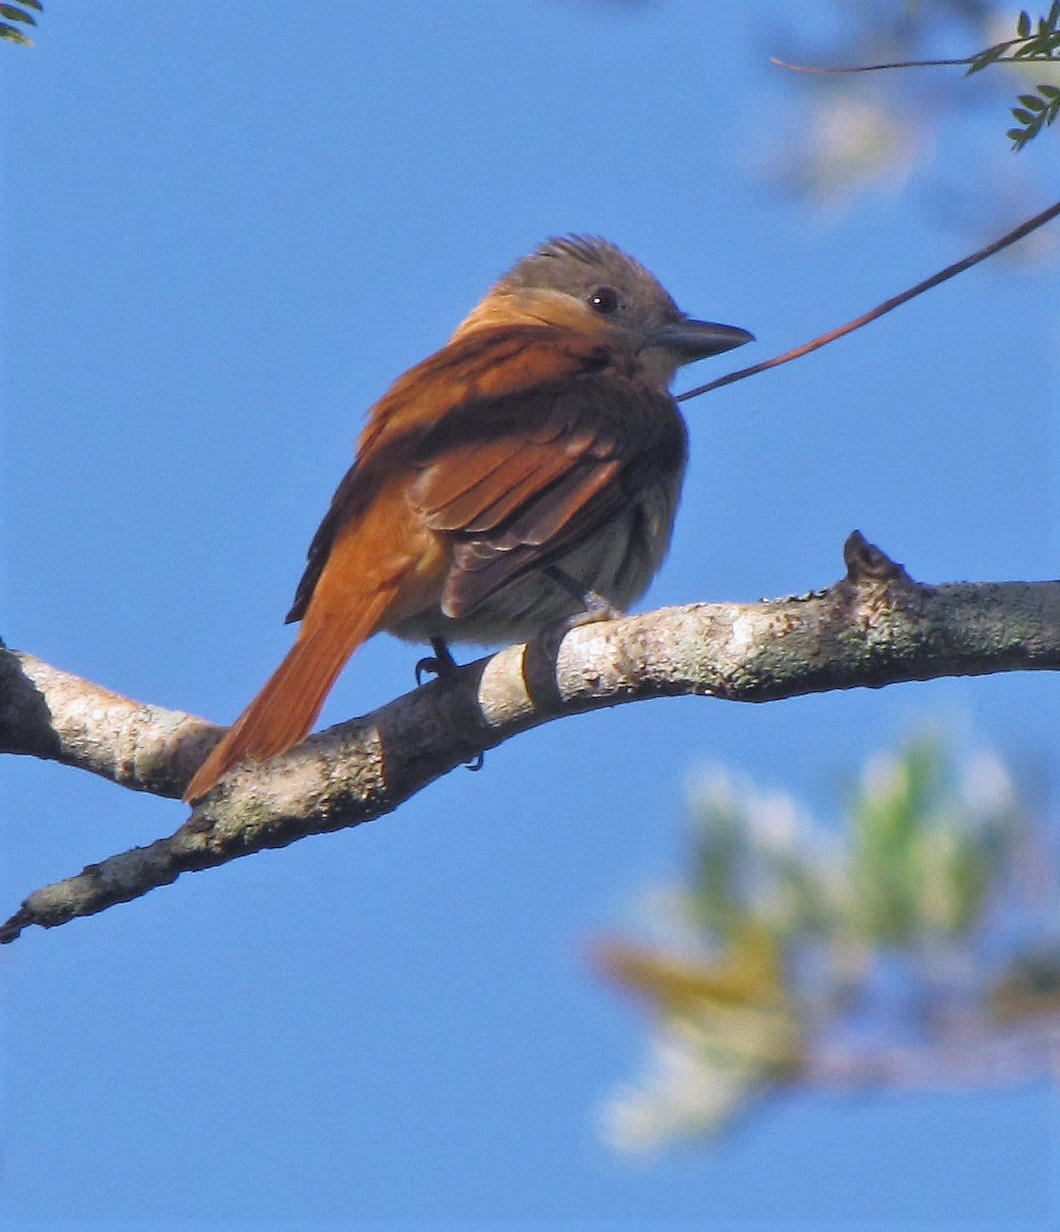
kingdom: Animalia
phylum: Chordata
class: Aves
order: Passeriformes
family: Cotingidae
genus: Pachyramphus
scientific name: Pachyramphus validus
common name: Crested becard
